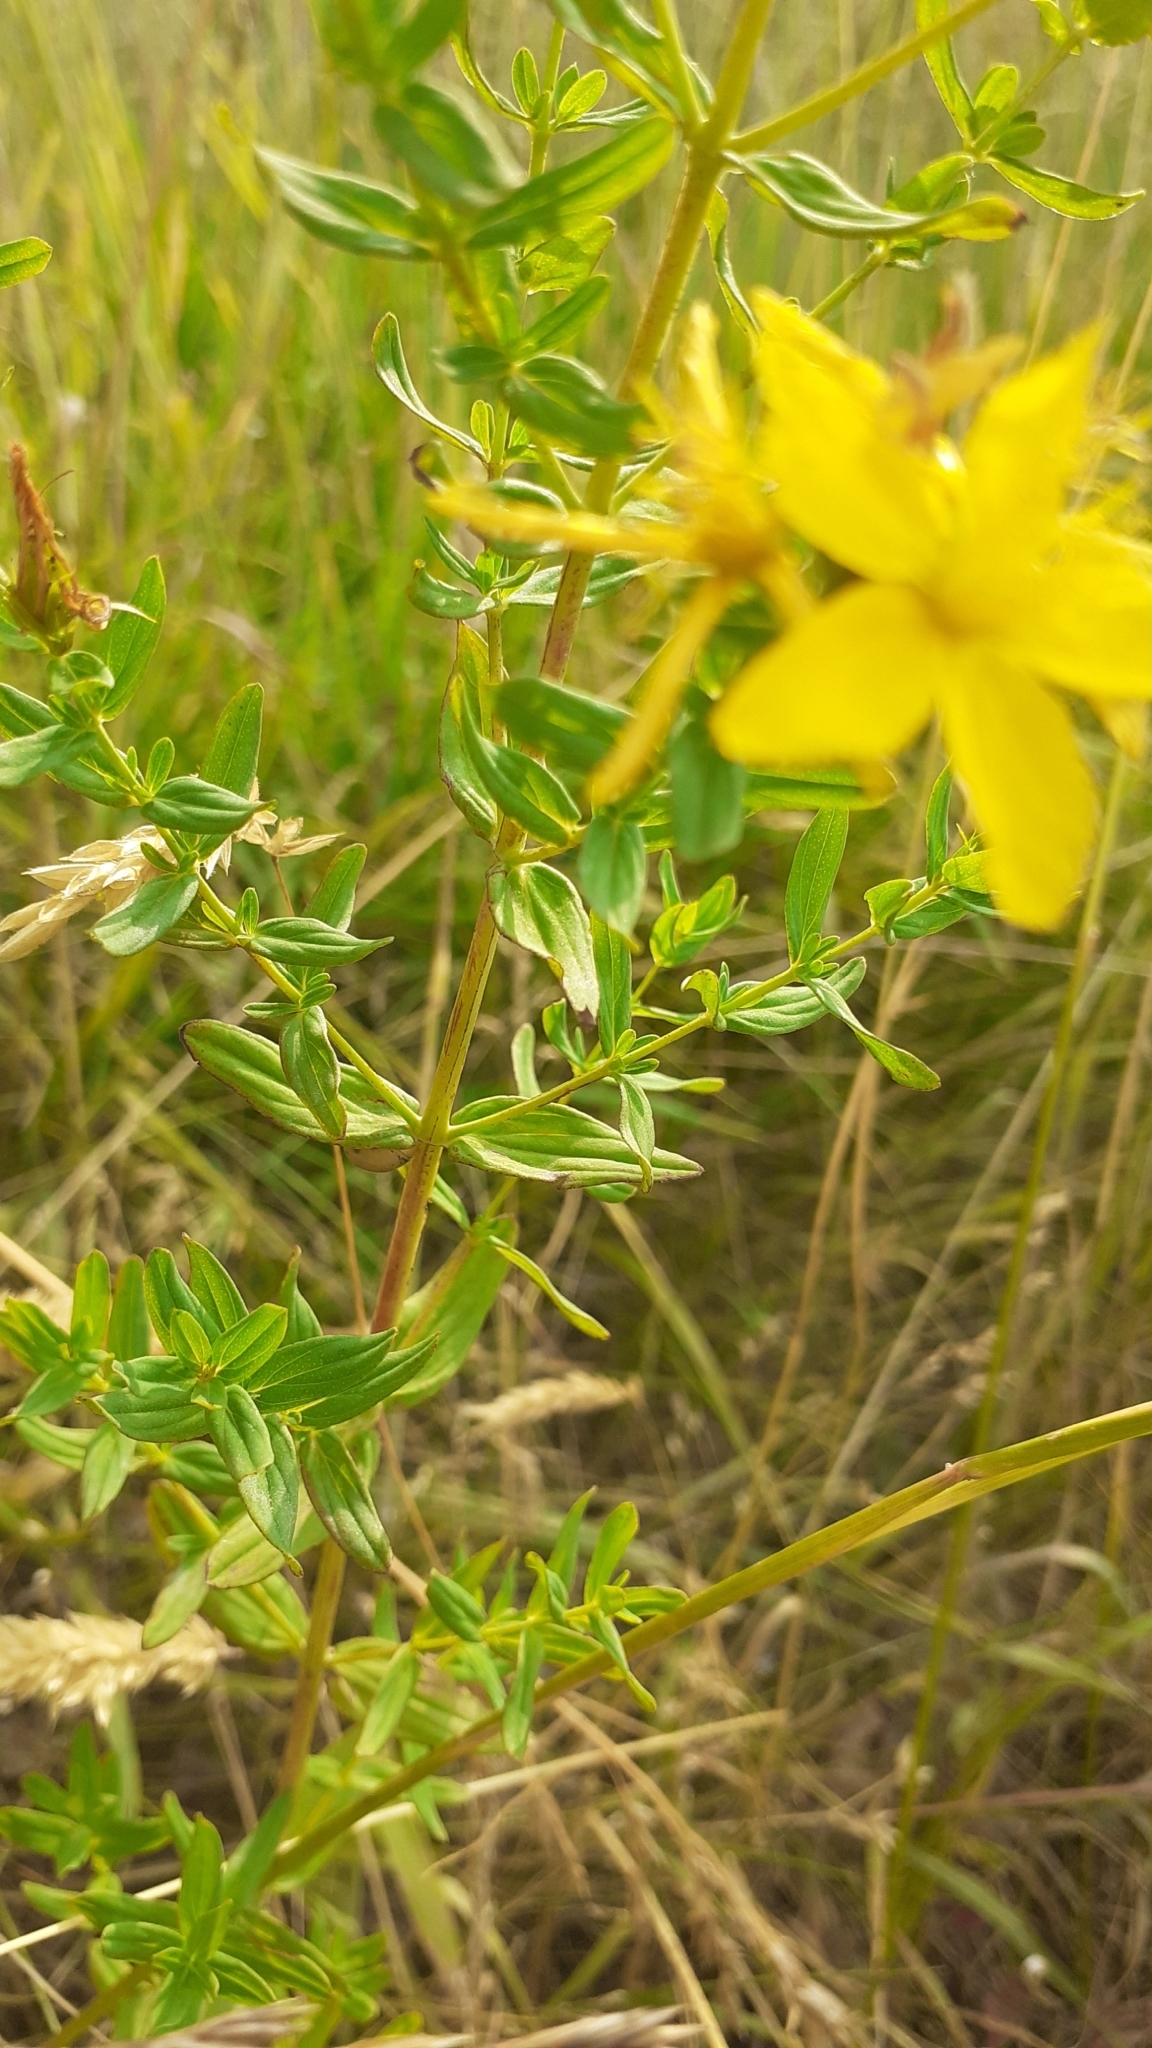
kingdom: Plantae
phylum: Tracheophyta
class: Magnoliopsida
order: Malpighiales
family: Hypericaceae
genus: Hypericum
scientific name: Hypericum perforatum
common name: Common st. johnswort
